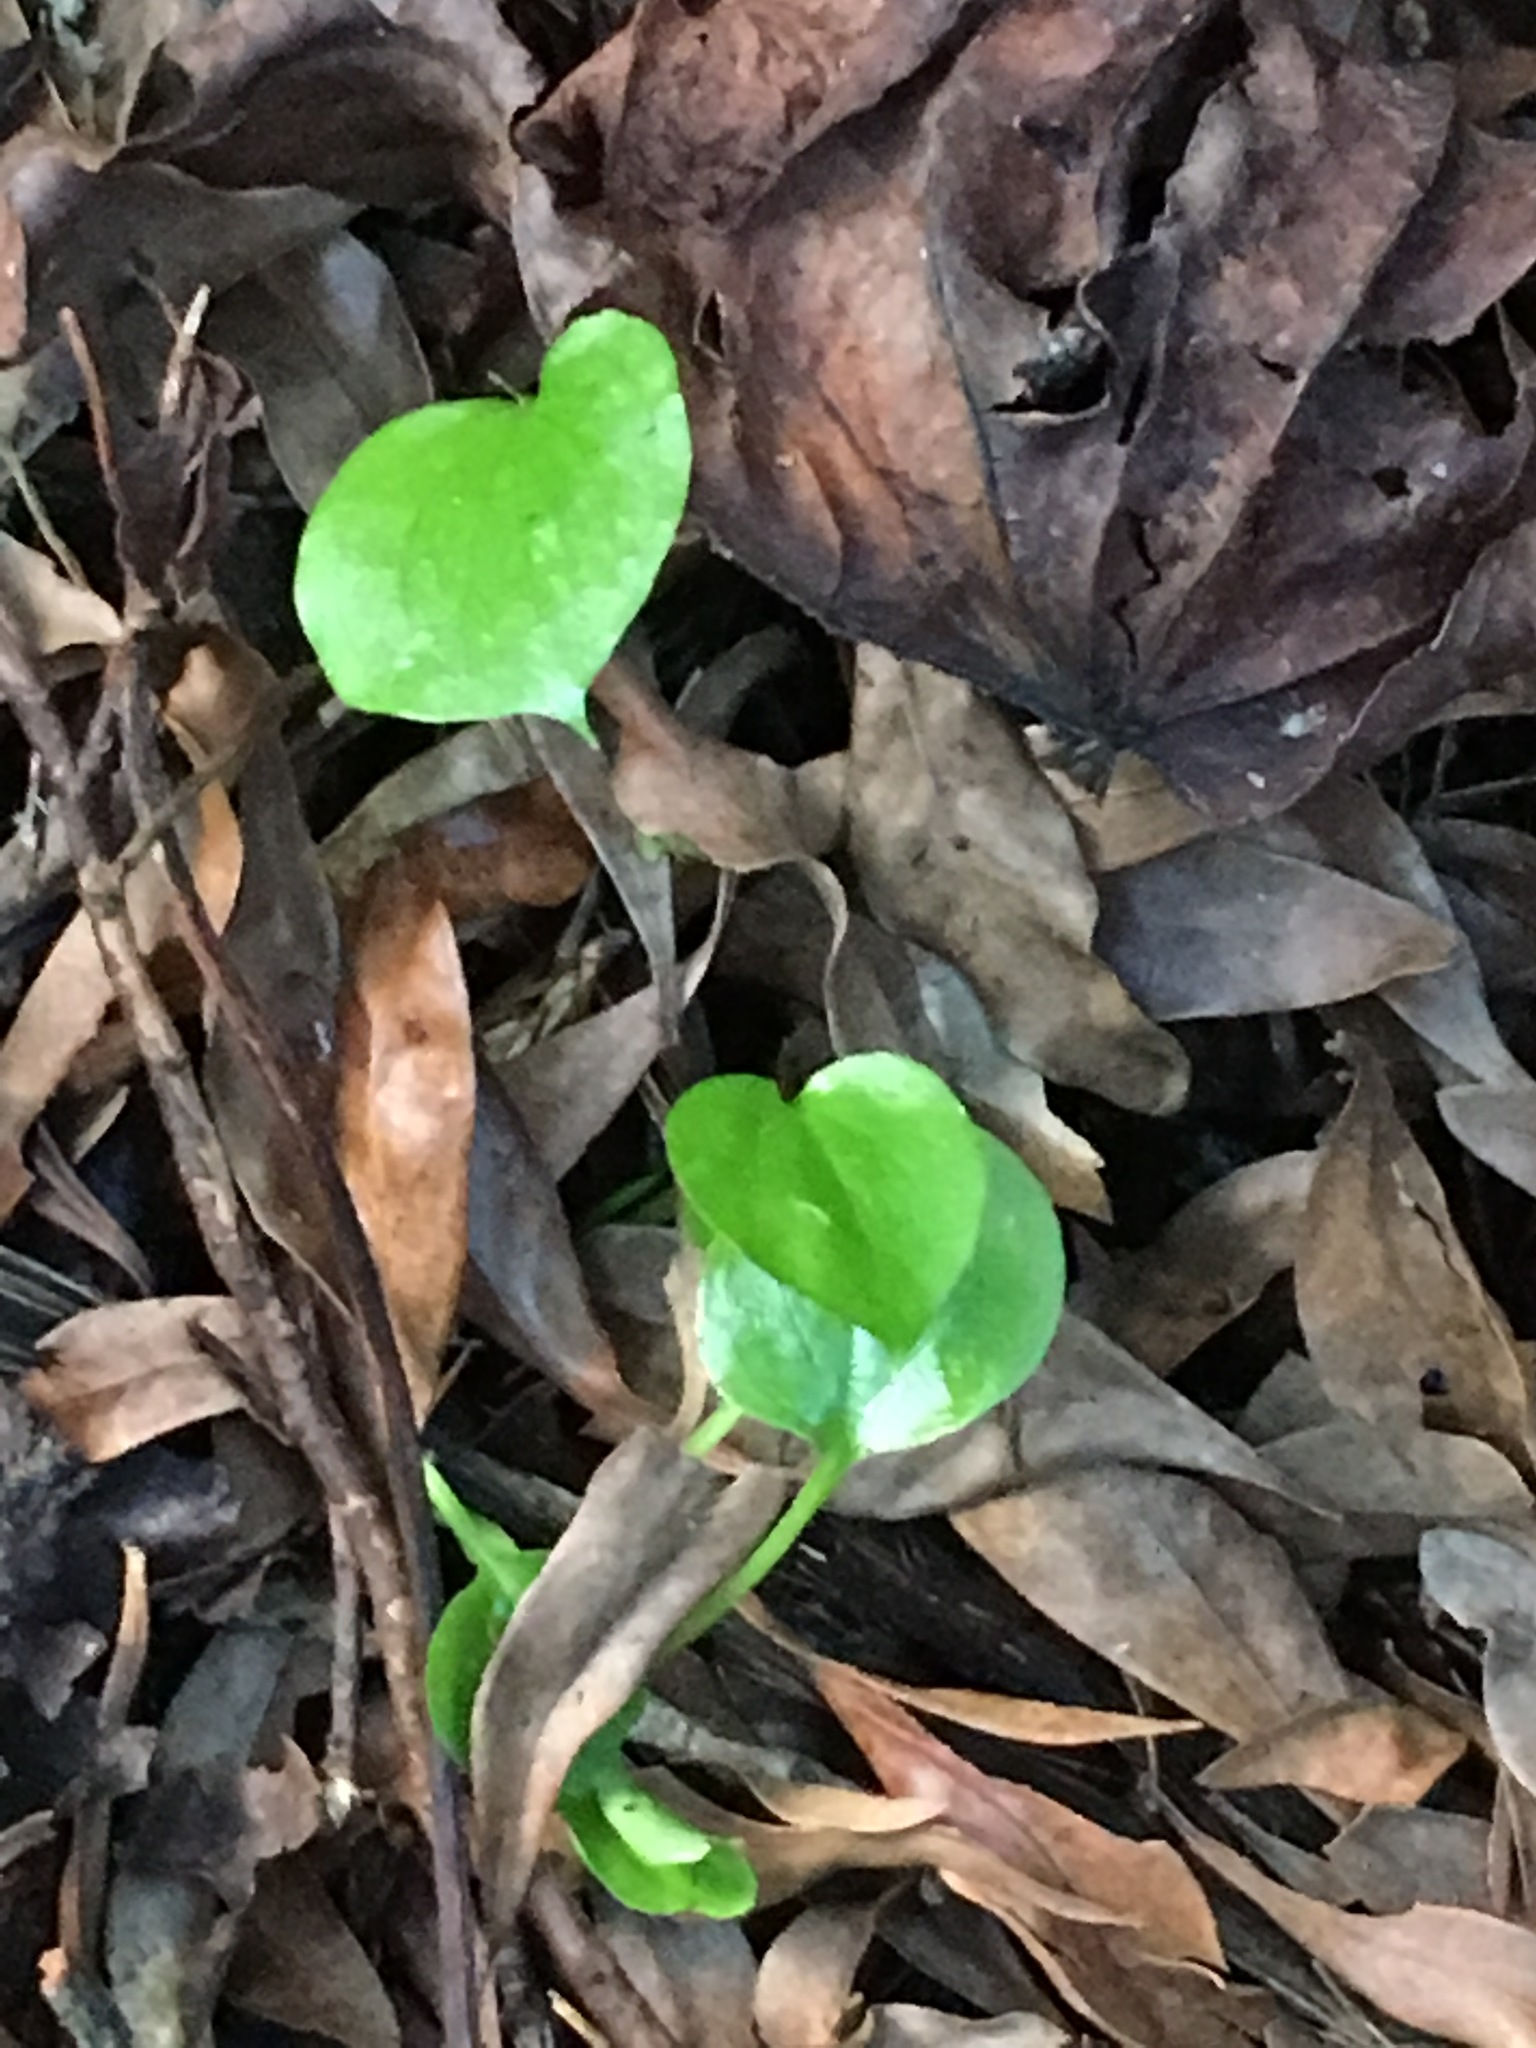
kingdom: Plantae
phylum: Tracheophyta
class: Liliopsida
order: Alismatales
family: Araceae
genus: Zantedeschia
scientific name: Zantedeschia aethiopica
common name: Altar-lily
